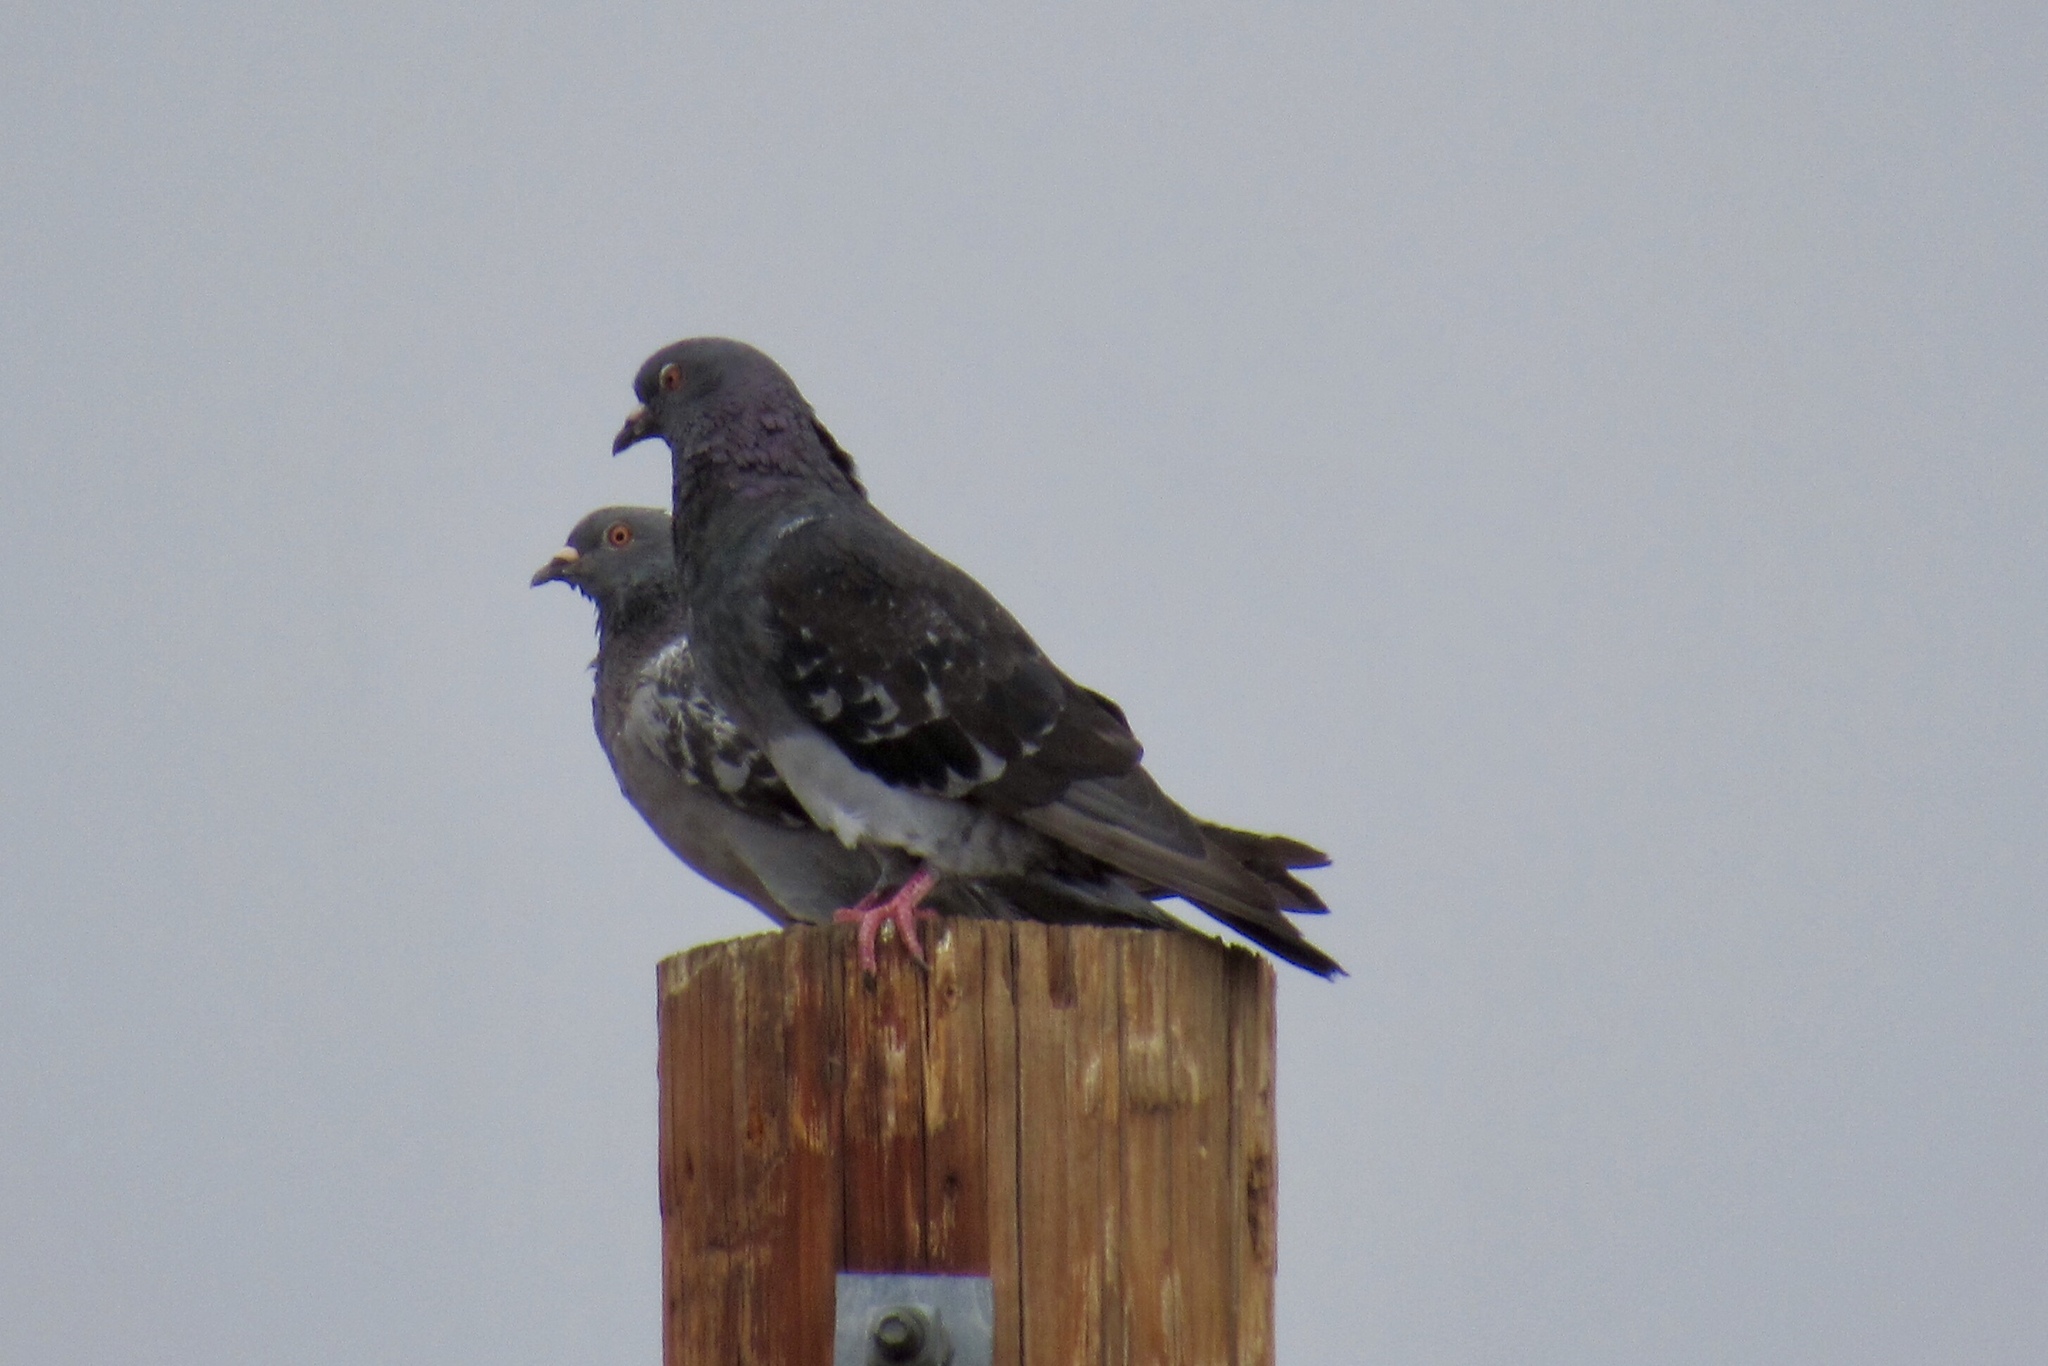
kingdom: Animalia
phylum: Chordata
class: Aves
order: Columbiformes
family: Columbidae
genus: Columba
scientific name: Columba livia
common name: Rock pigeon
